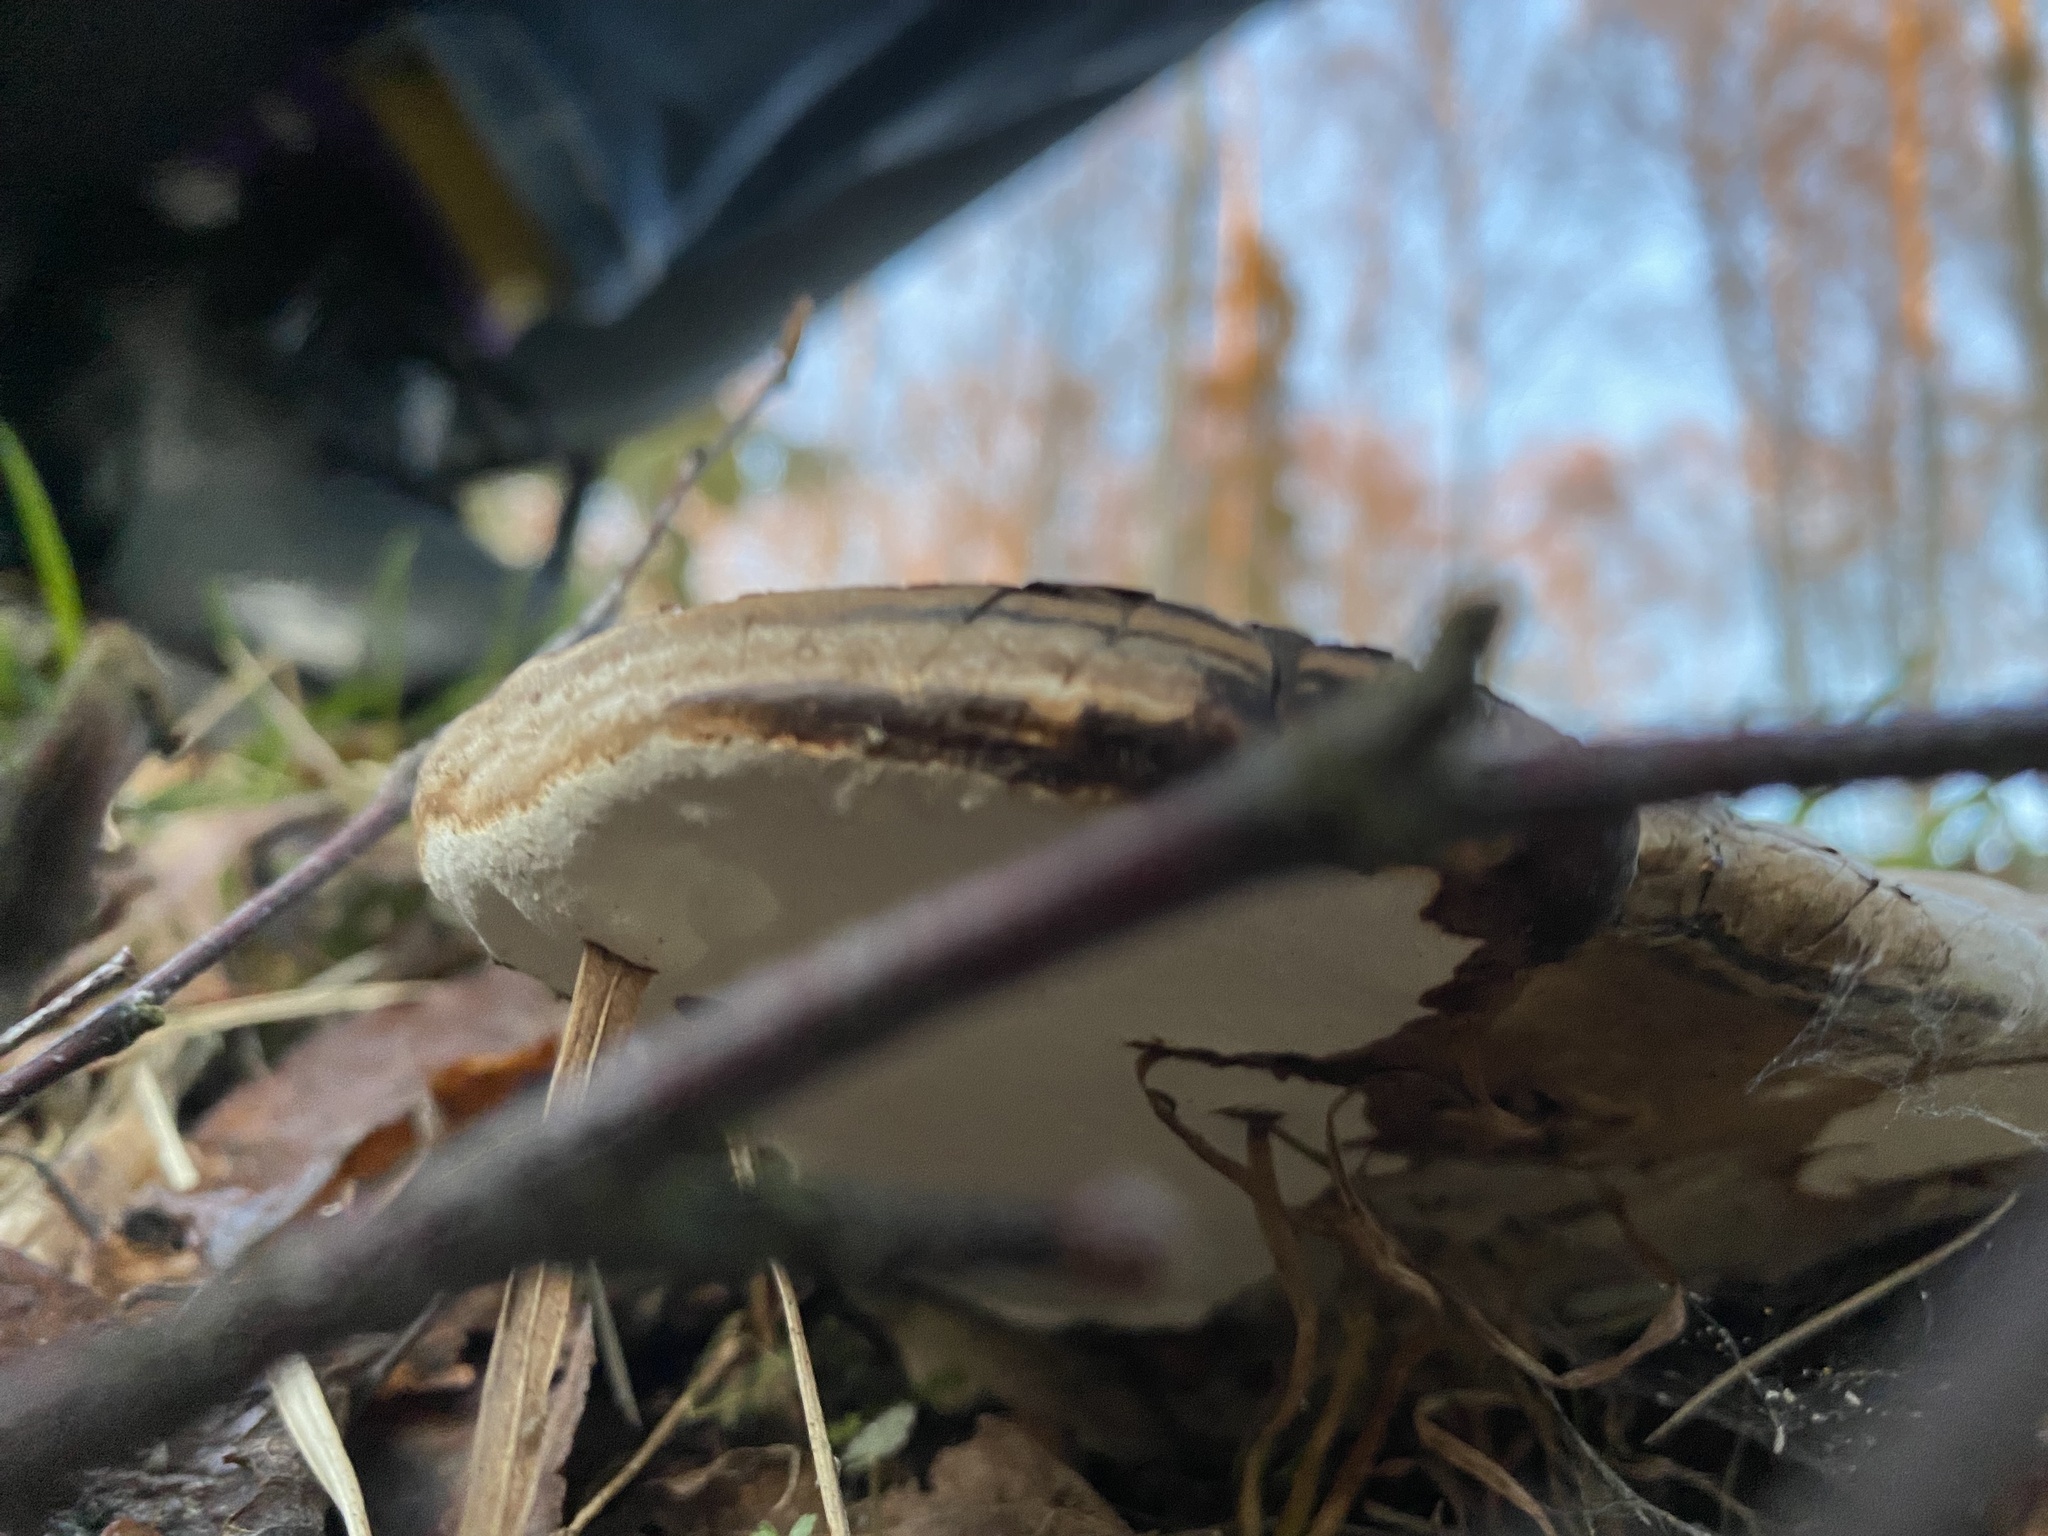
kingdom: Fungi
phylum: Basidiomycota
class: Agaricomycetes
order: Polyporales
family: Polyporaceae
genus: Ganoderma
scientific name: Ganoderma applanatum
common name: Artist's bracket
